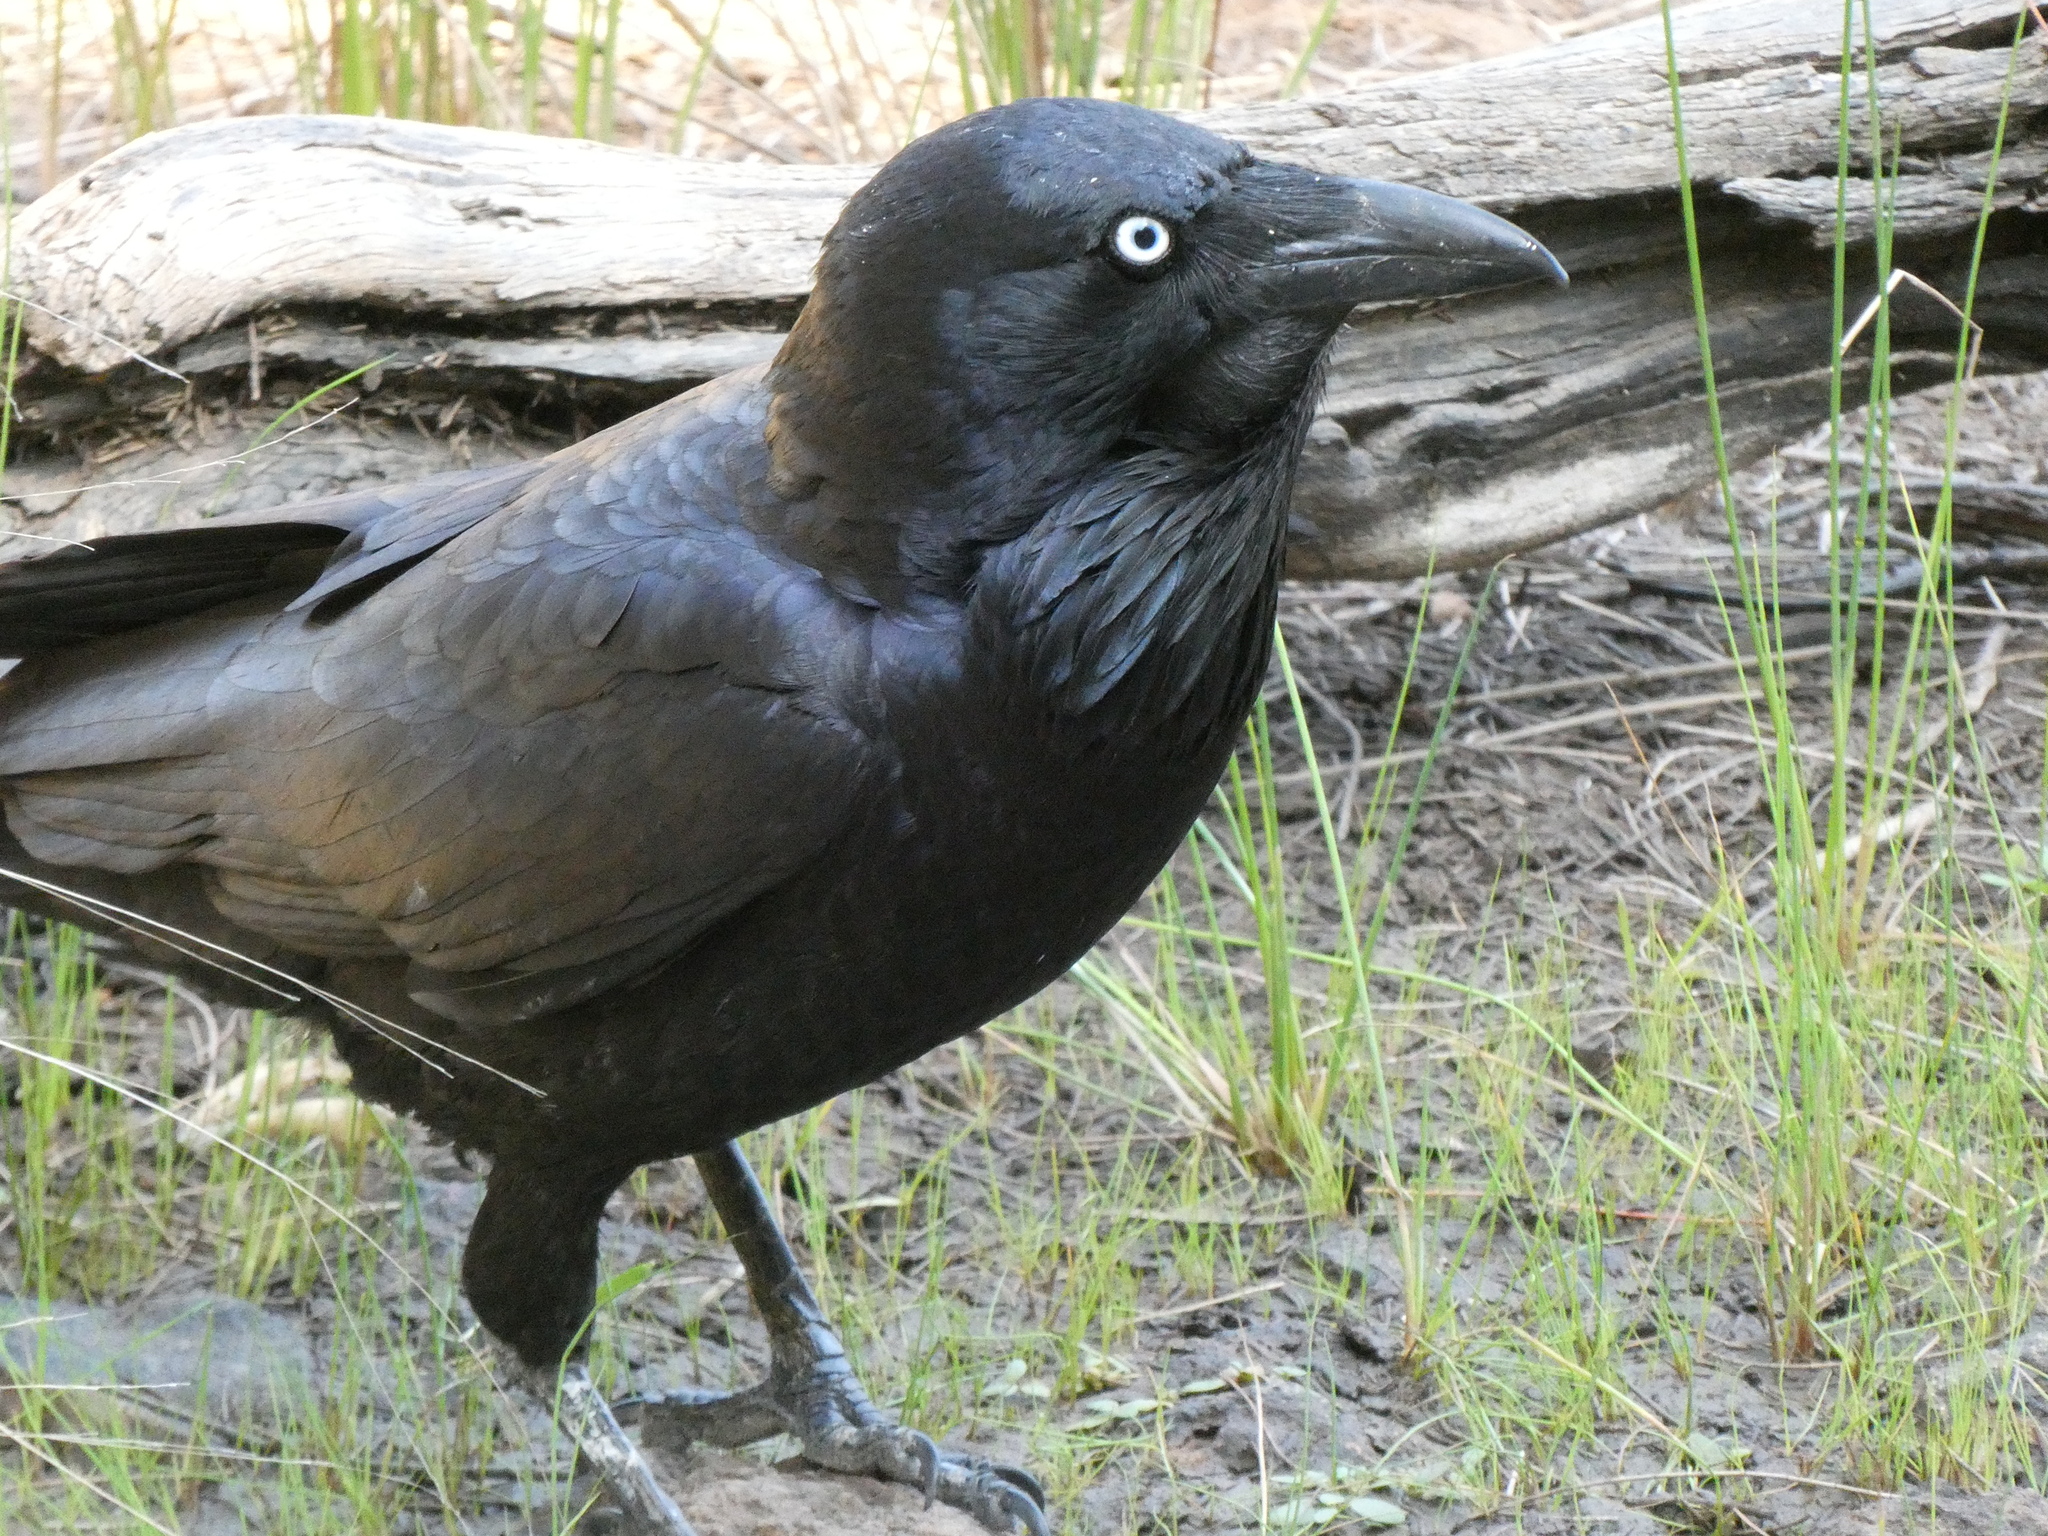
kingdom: Animalia
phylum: Chordata
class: Aves
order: Passeriformes
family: Corvidae
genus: Corvus
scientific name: Corvus coronoides
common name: Australian raven
